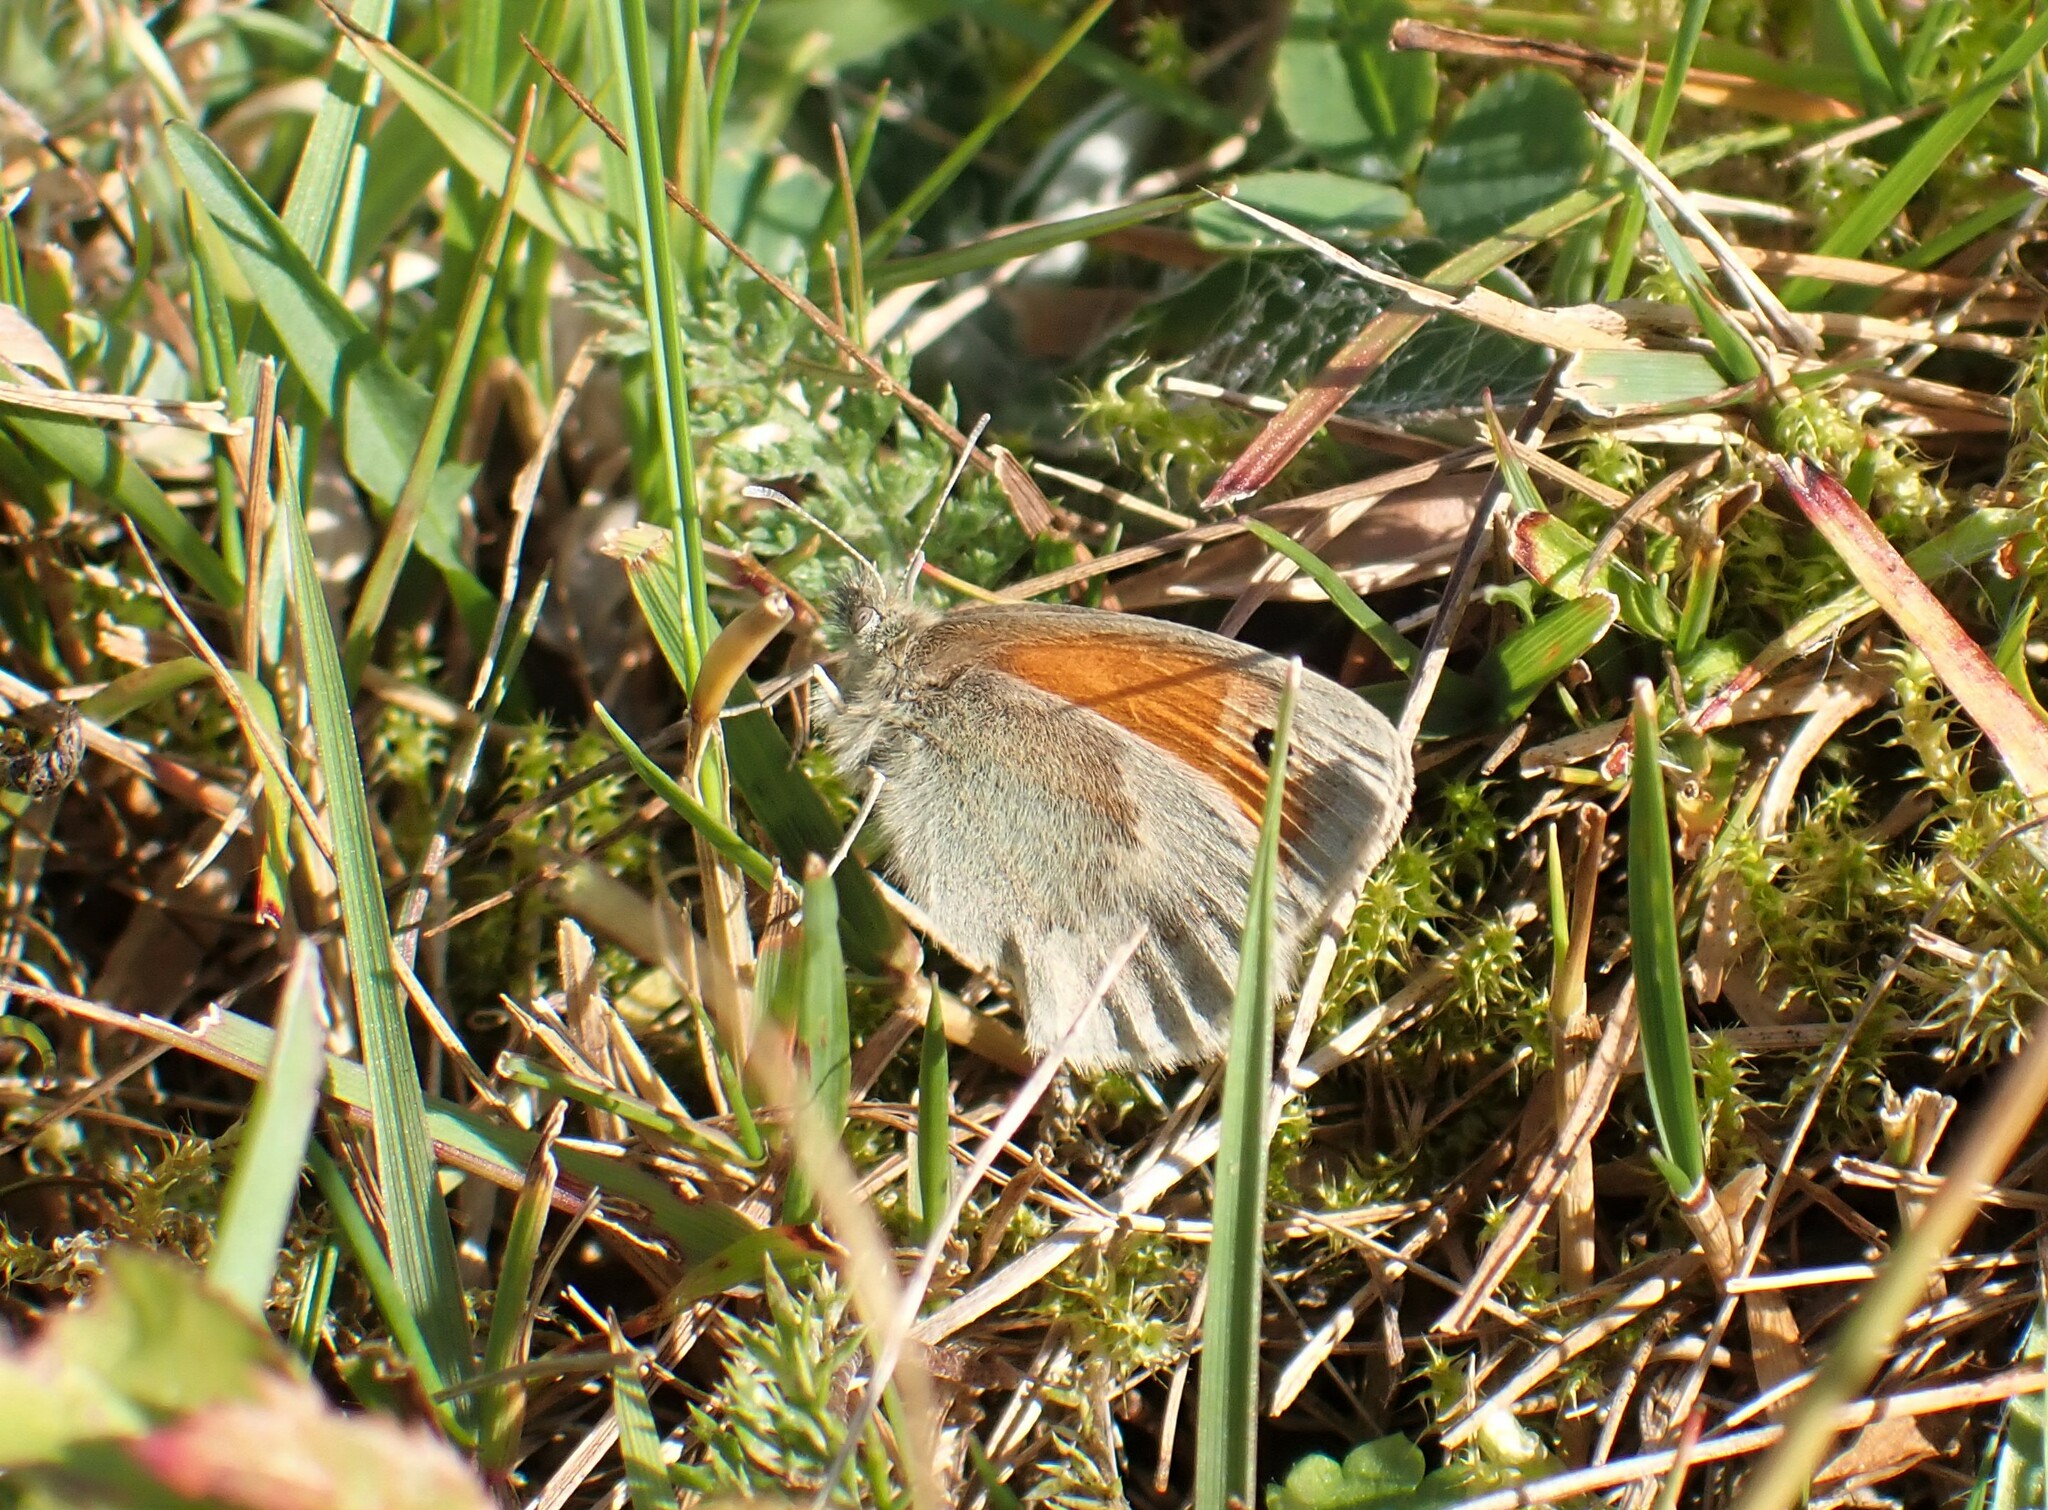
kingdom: Animalia
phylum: Arthropoda
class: Insecta
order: Lepidoptera
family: Nymphalidae
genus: Coenonympha
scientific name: Coenonympha pamphilus
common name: Small heath
